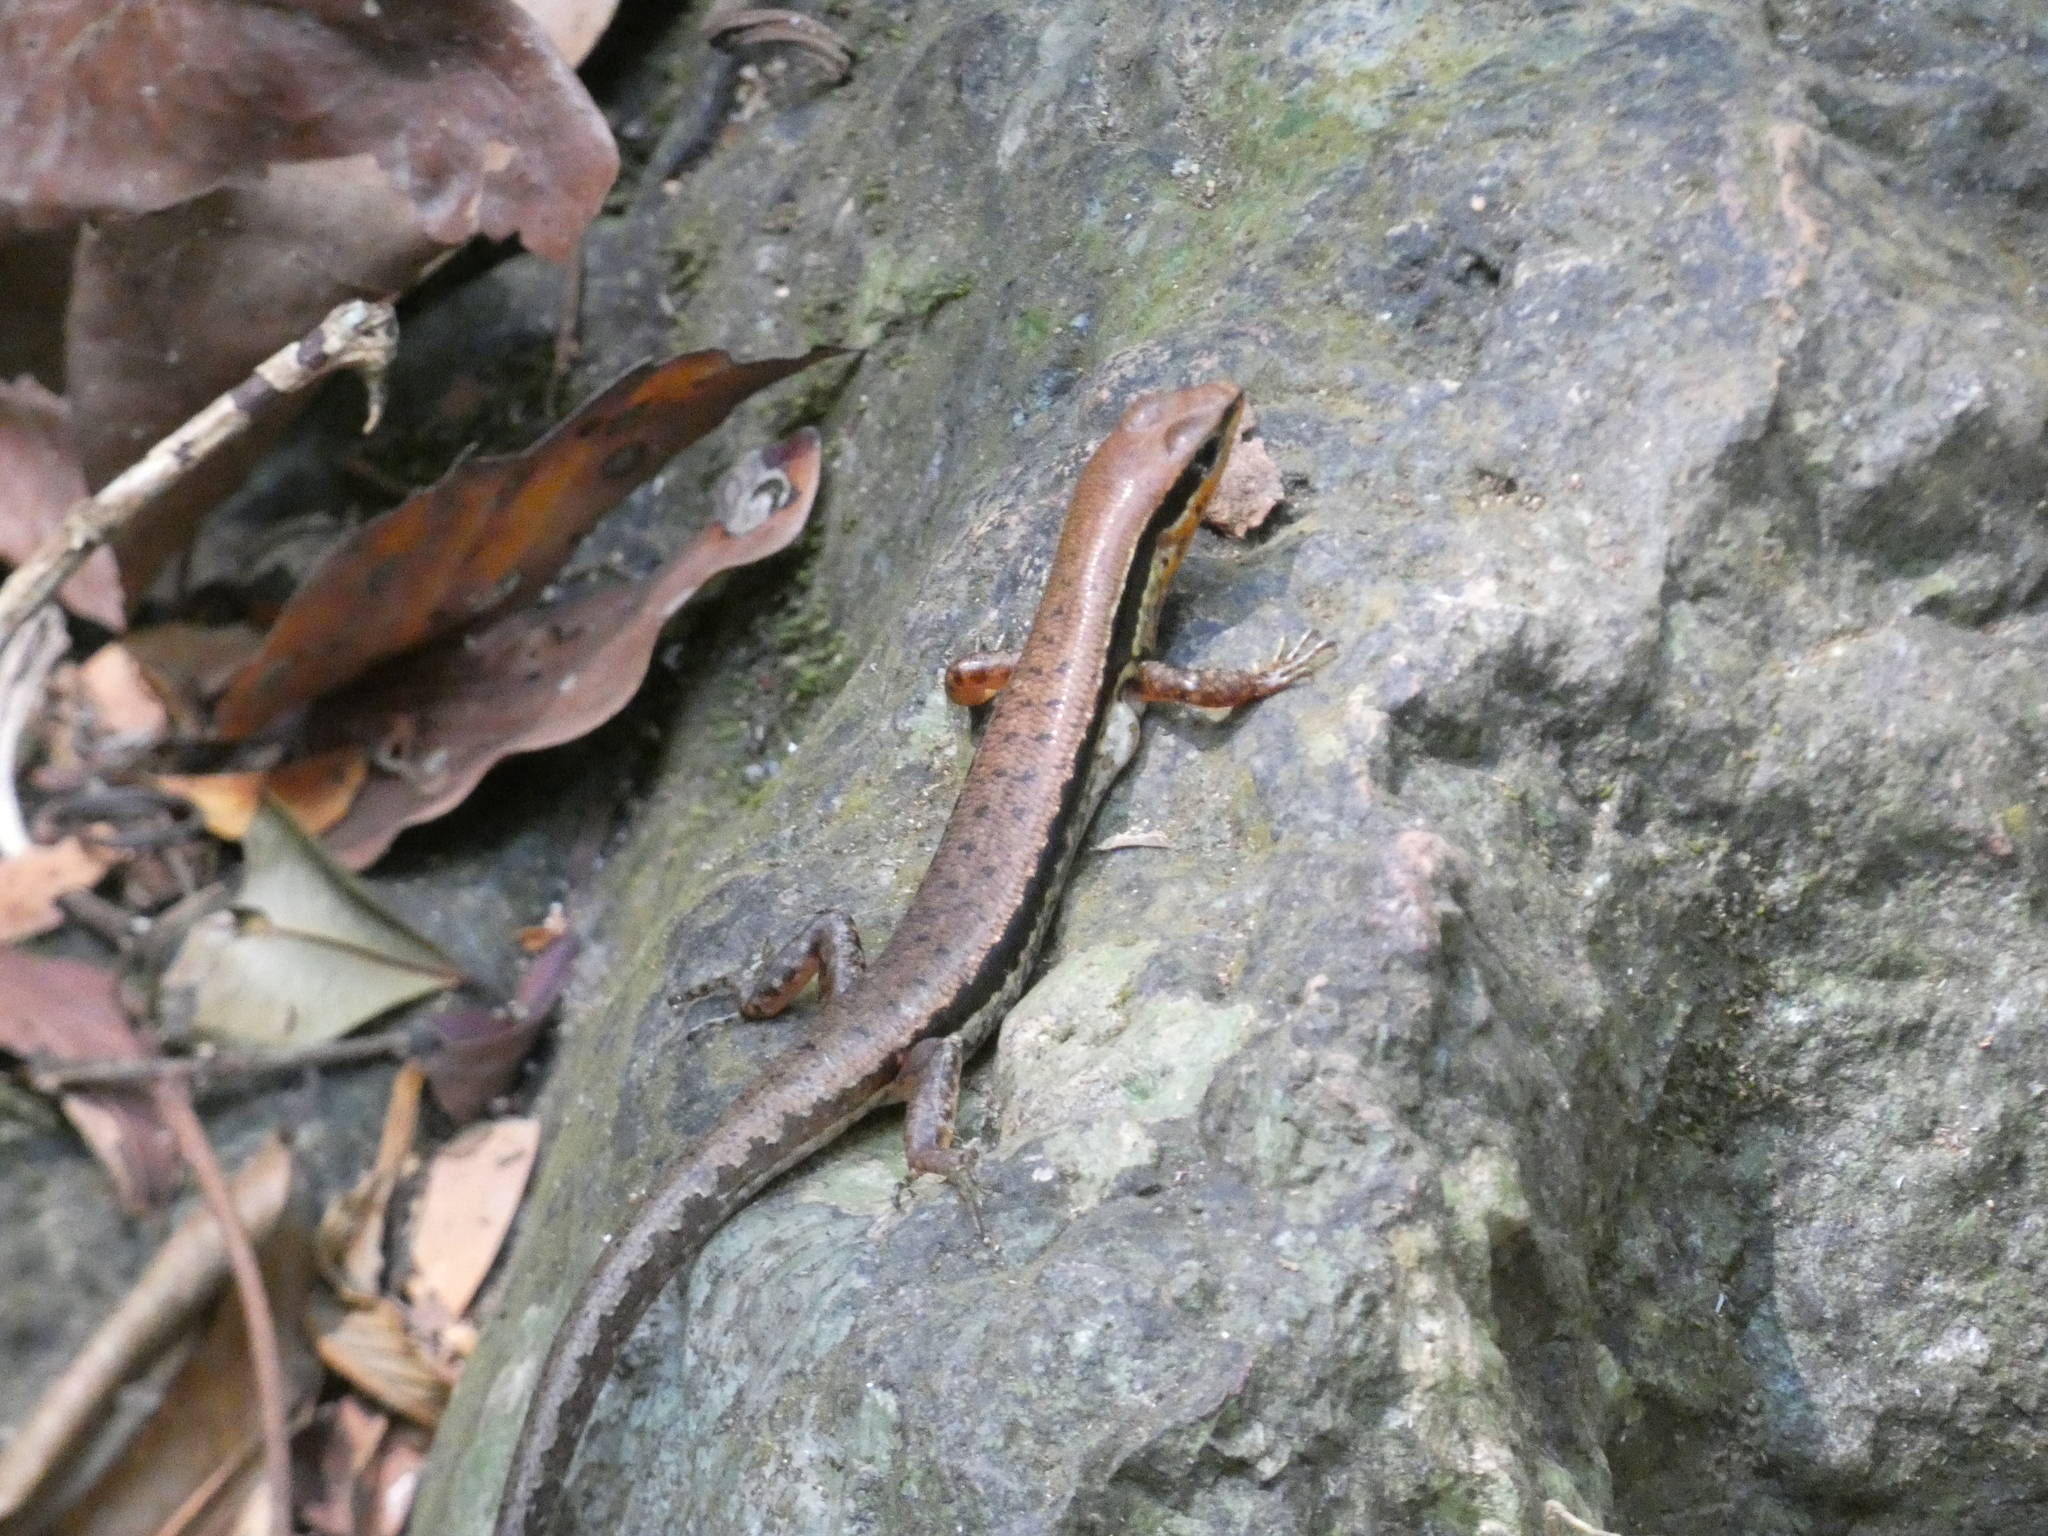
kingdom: Animalia
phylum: Chordata
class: Squamata
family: Scincidae
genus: Sphenomorphus
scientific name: Sphenomorphus maculatus
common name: Maculated forest skink
